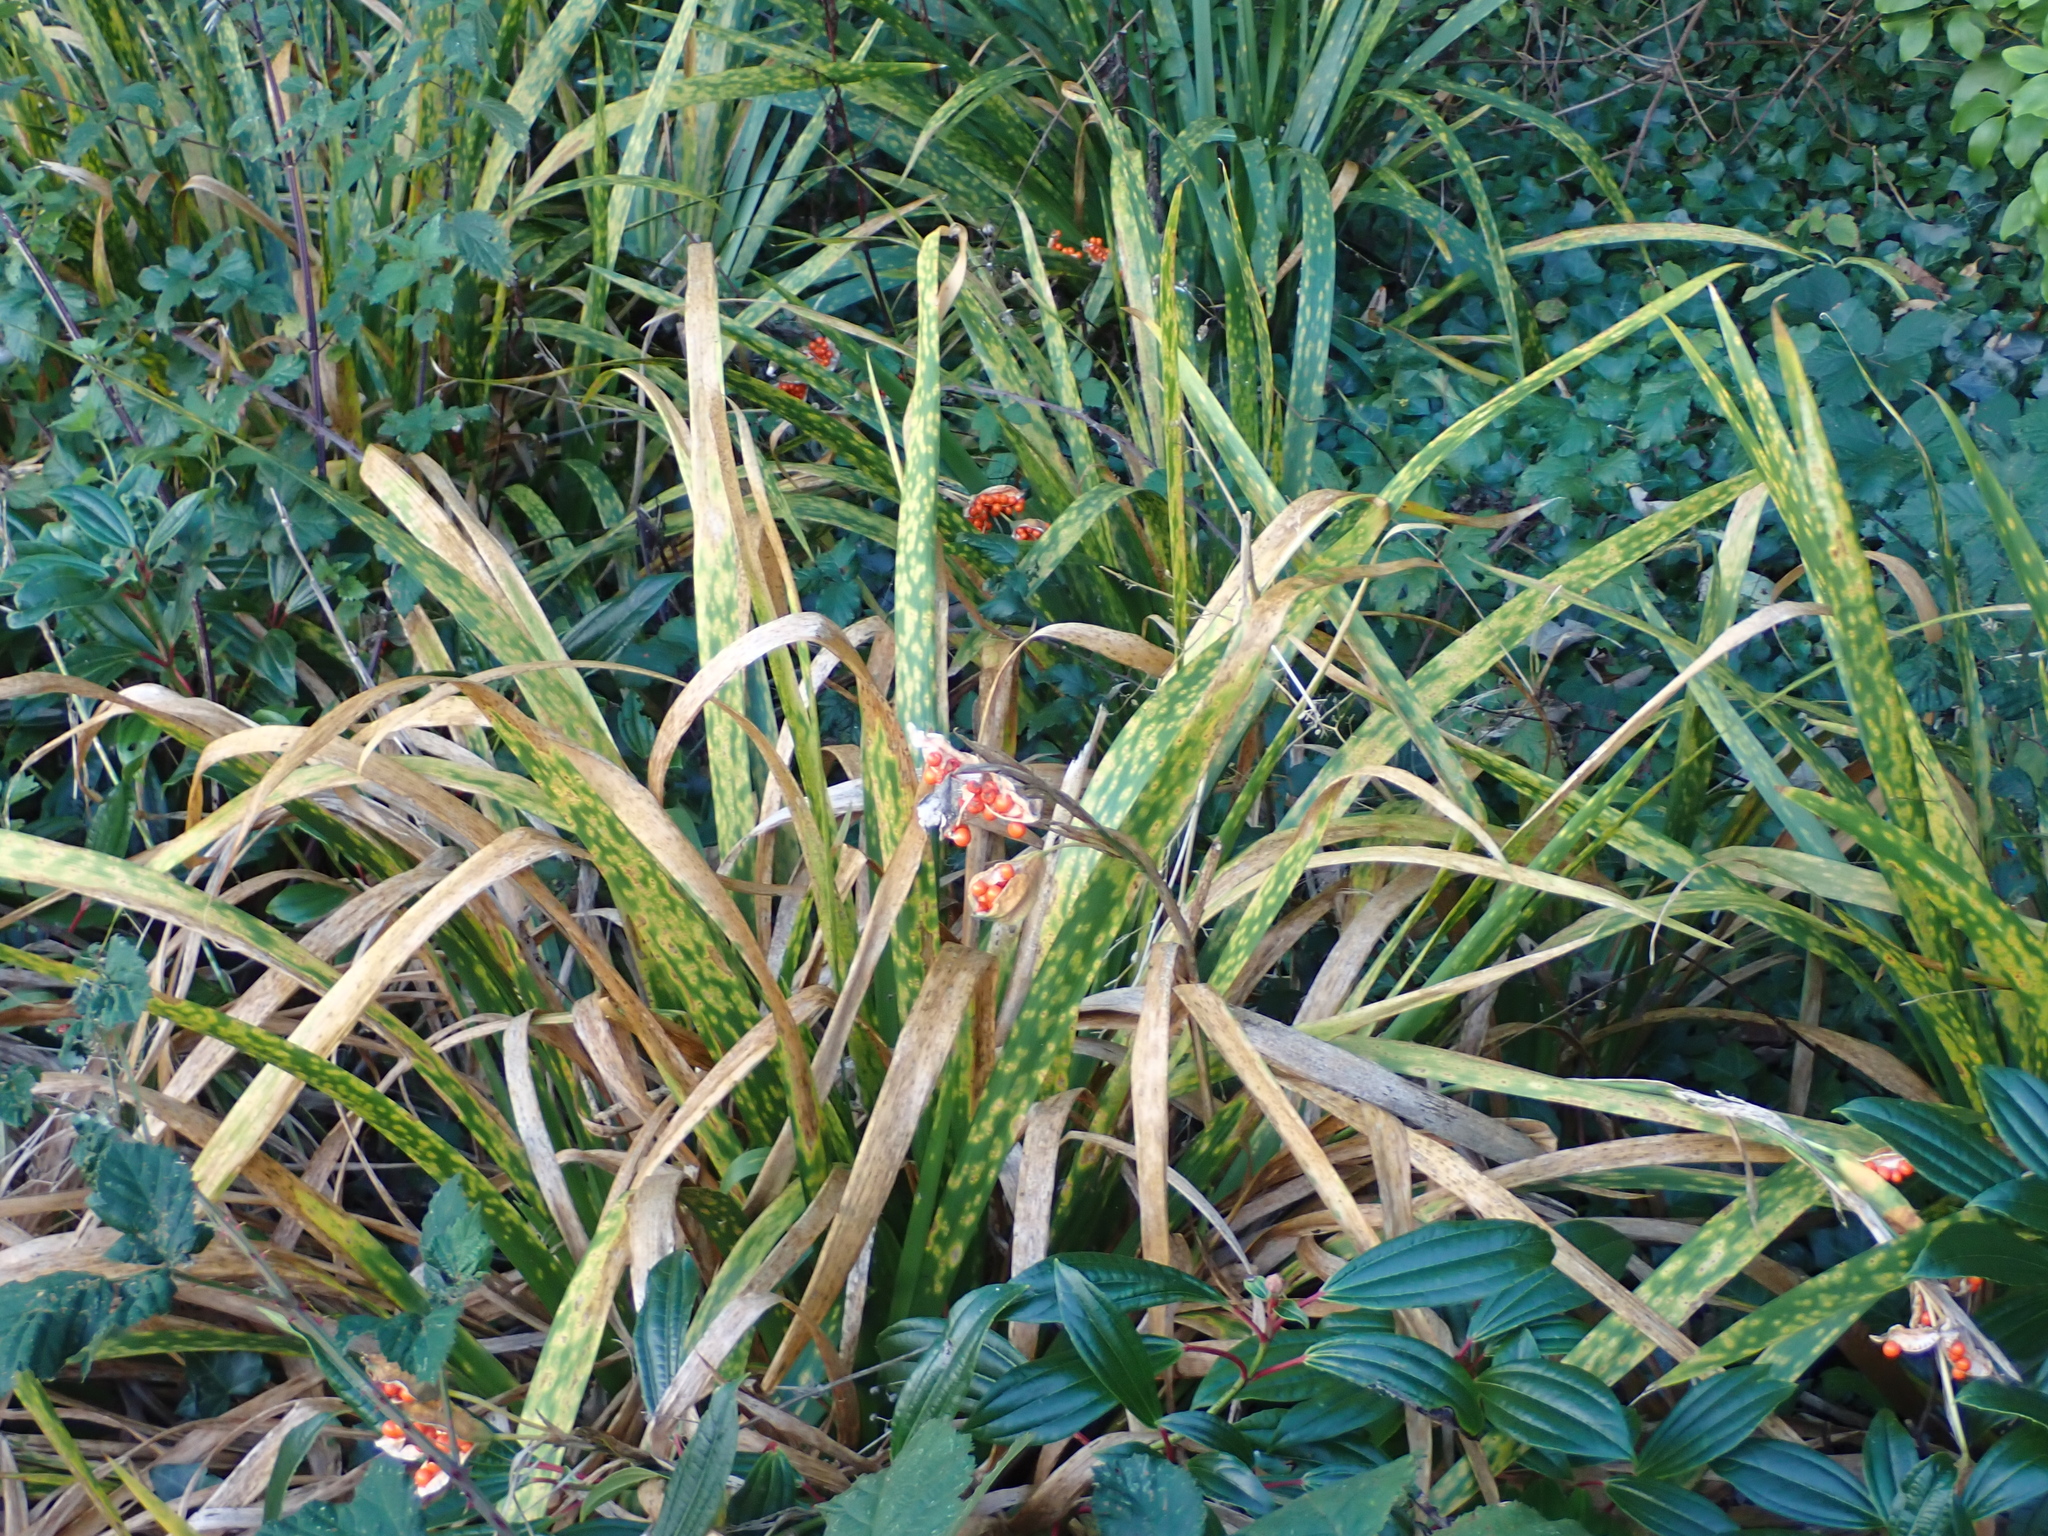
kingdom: Plantae
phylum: Tracheophyta
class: Liliopsida
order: Asparagales
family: Iridaceae
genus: Iris
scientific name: Iris foetidissima
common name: Stinking iris
